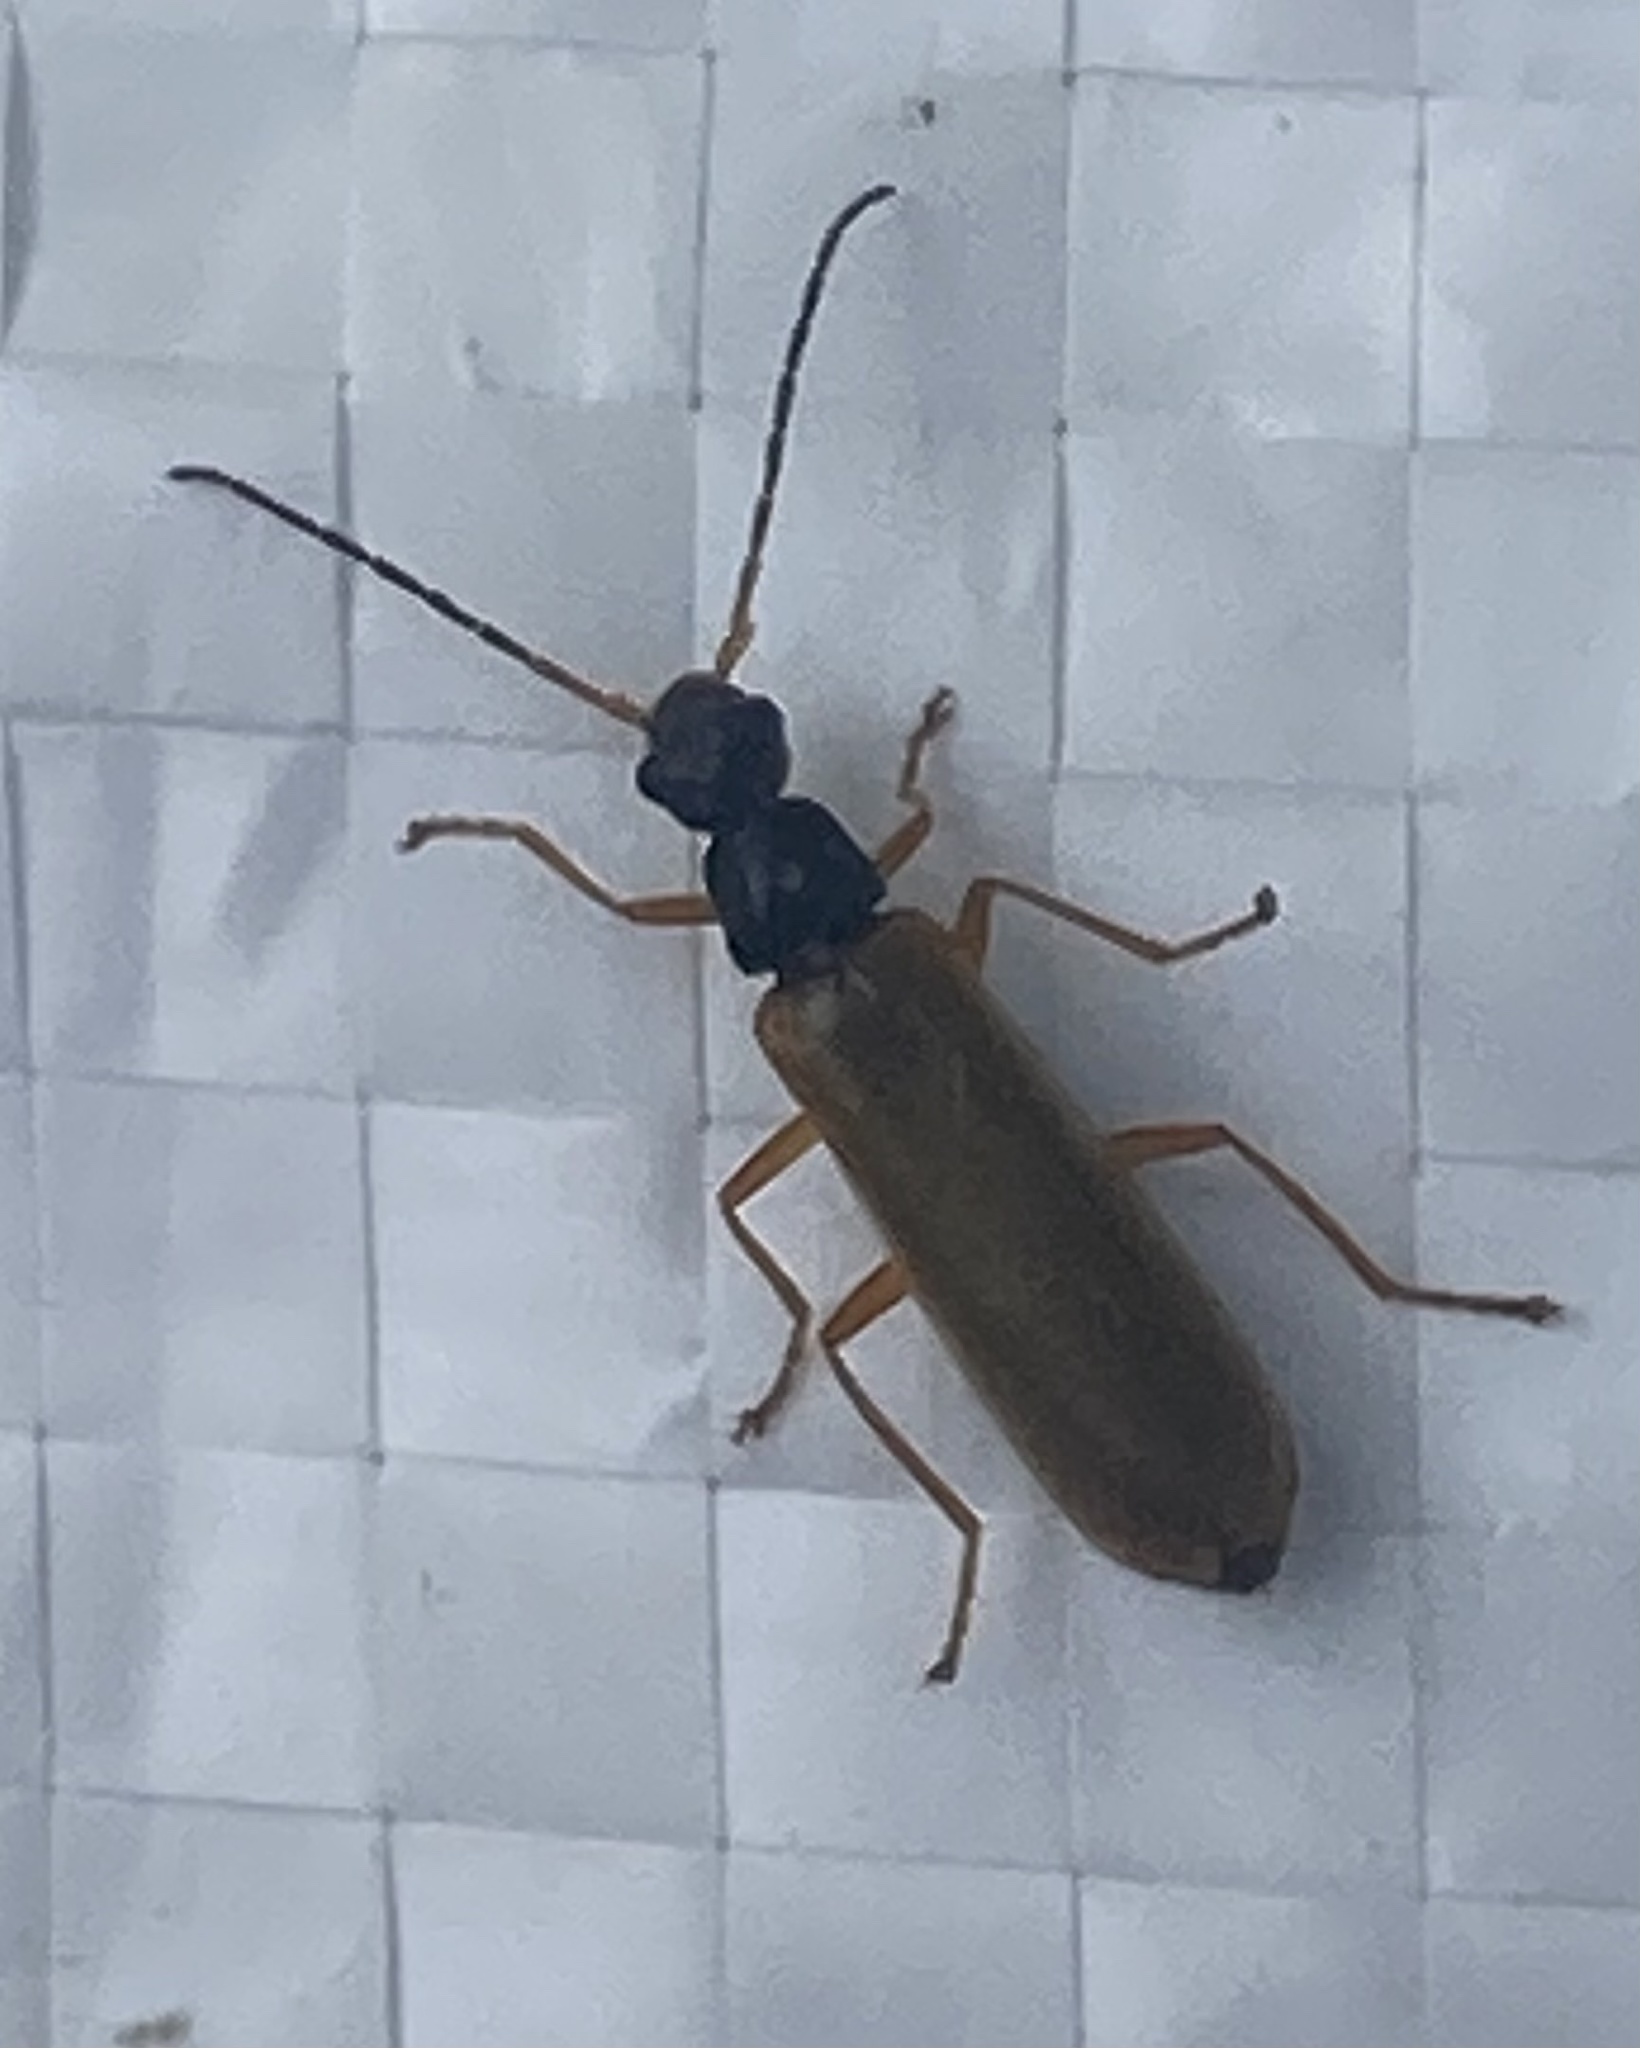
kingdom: Animalia
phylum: Arthropoda
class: Insecta
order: Coleoptera
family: Cantharidae
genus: Rhagonycha
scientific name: Rhagonycha lignosa
